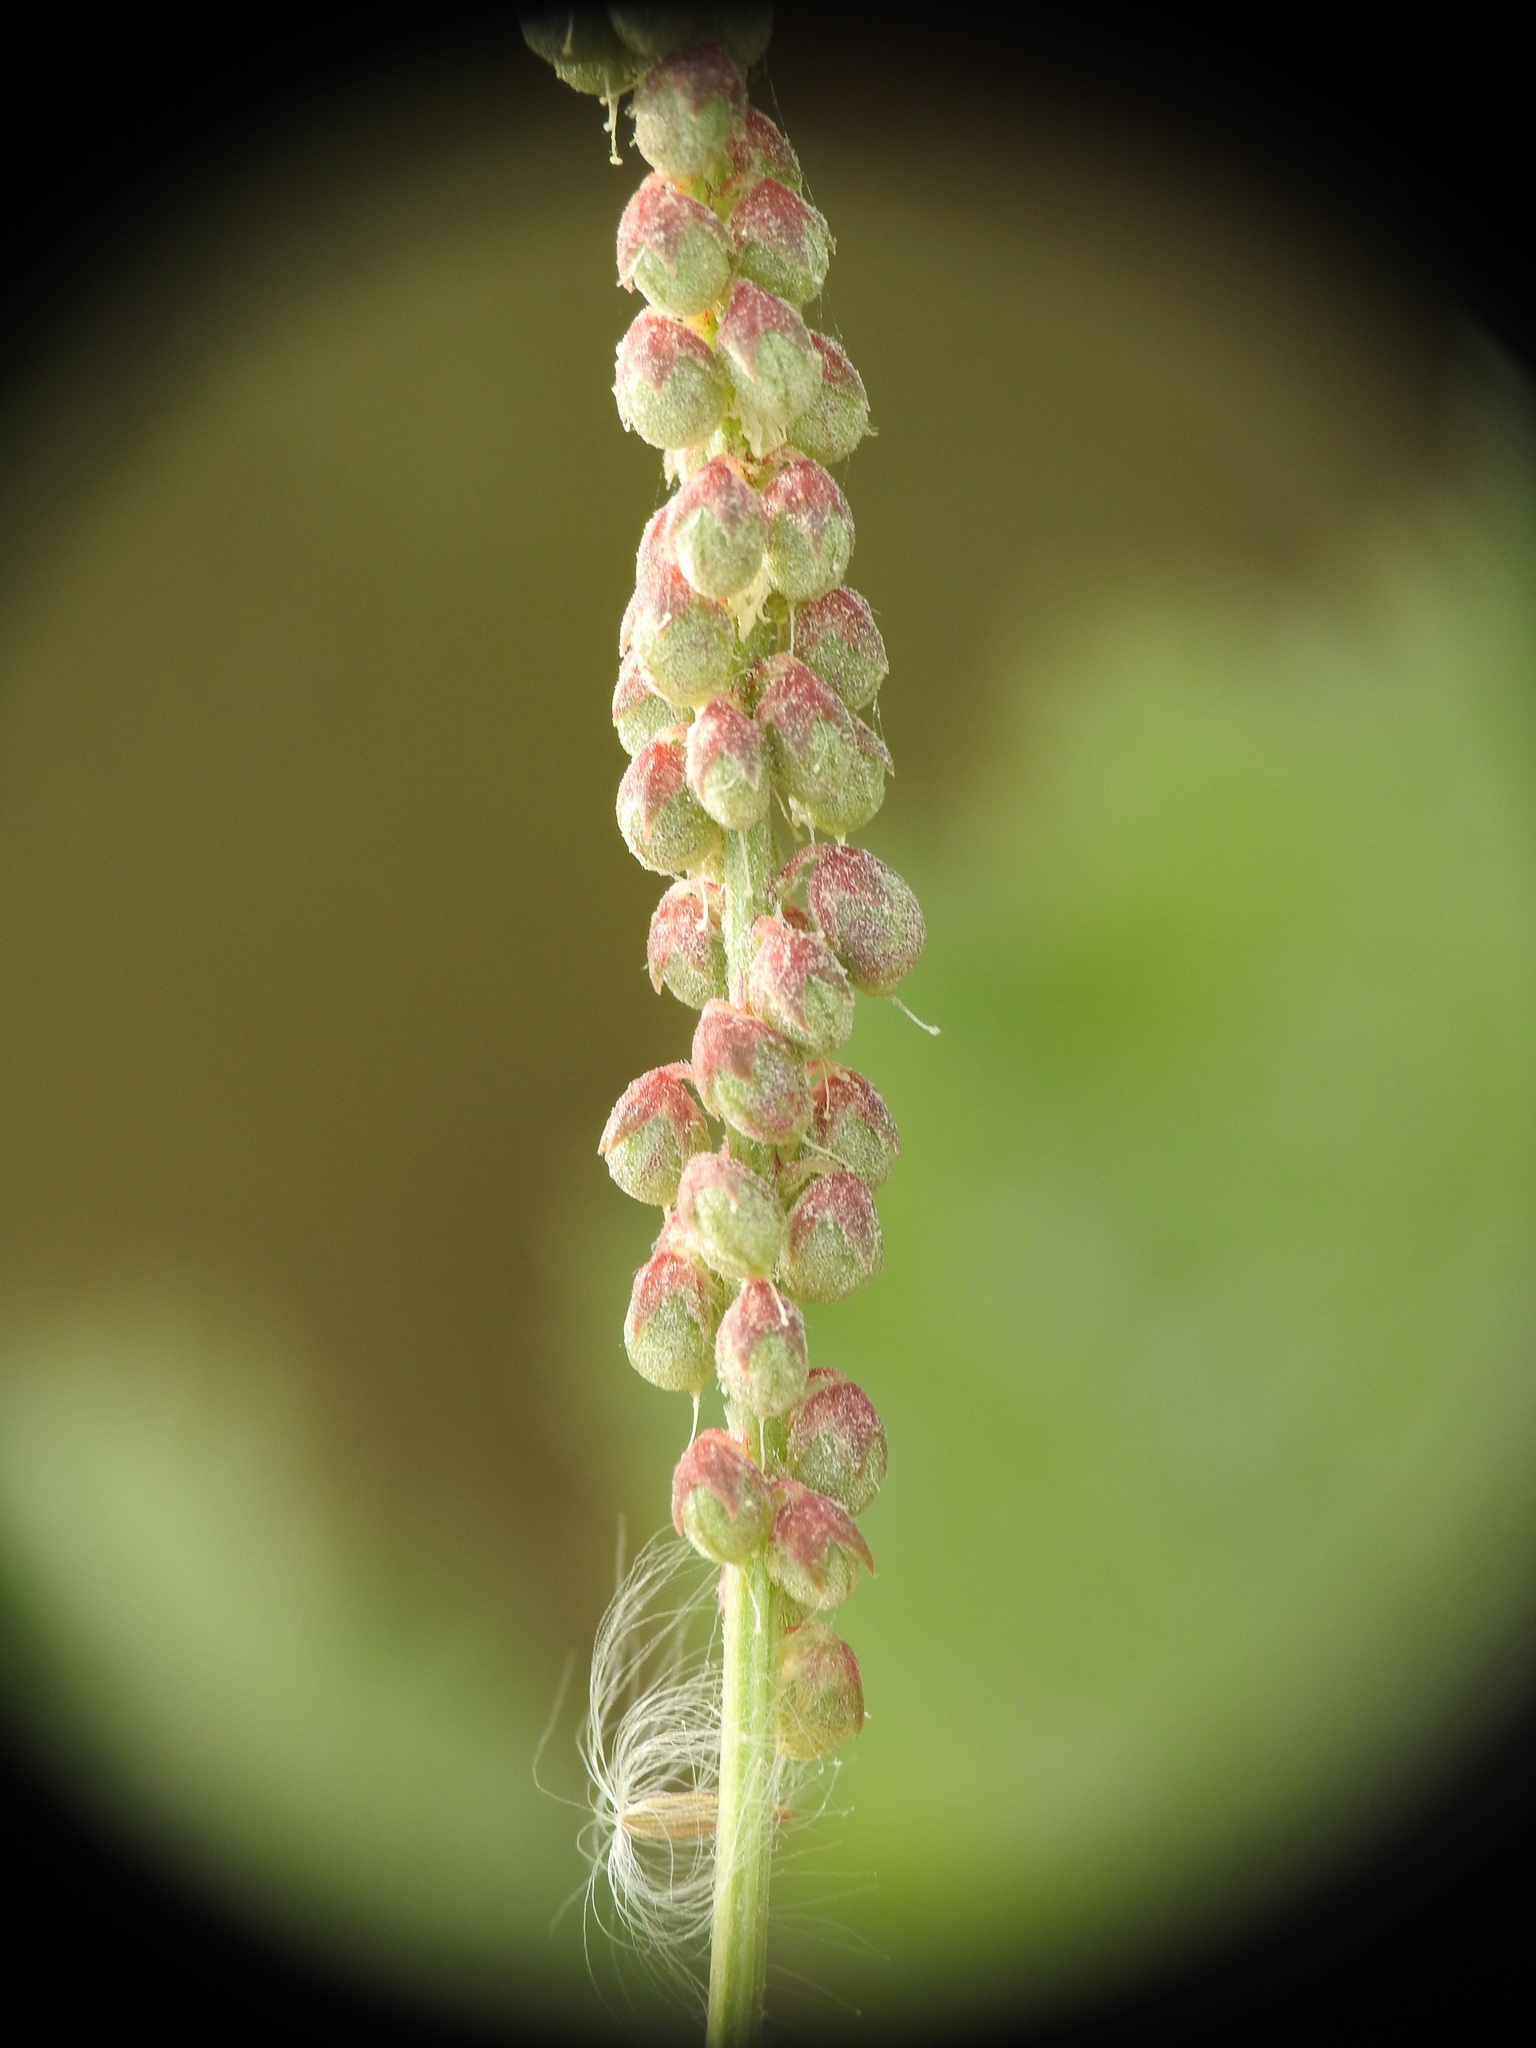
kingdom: Plantae
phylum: Tracheophyta
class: Magnoliopsida
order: Fabales
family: Fabaceae
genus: Melilotus
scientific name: Melilotus indicus
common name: Small melilot
